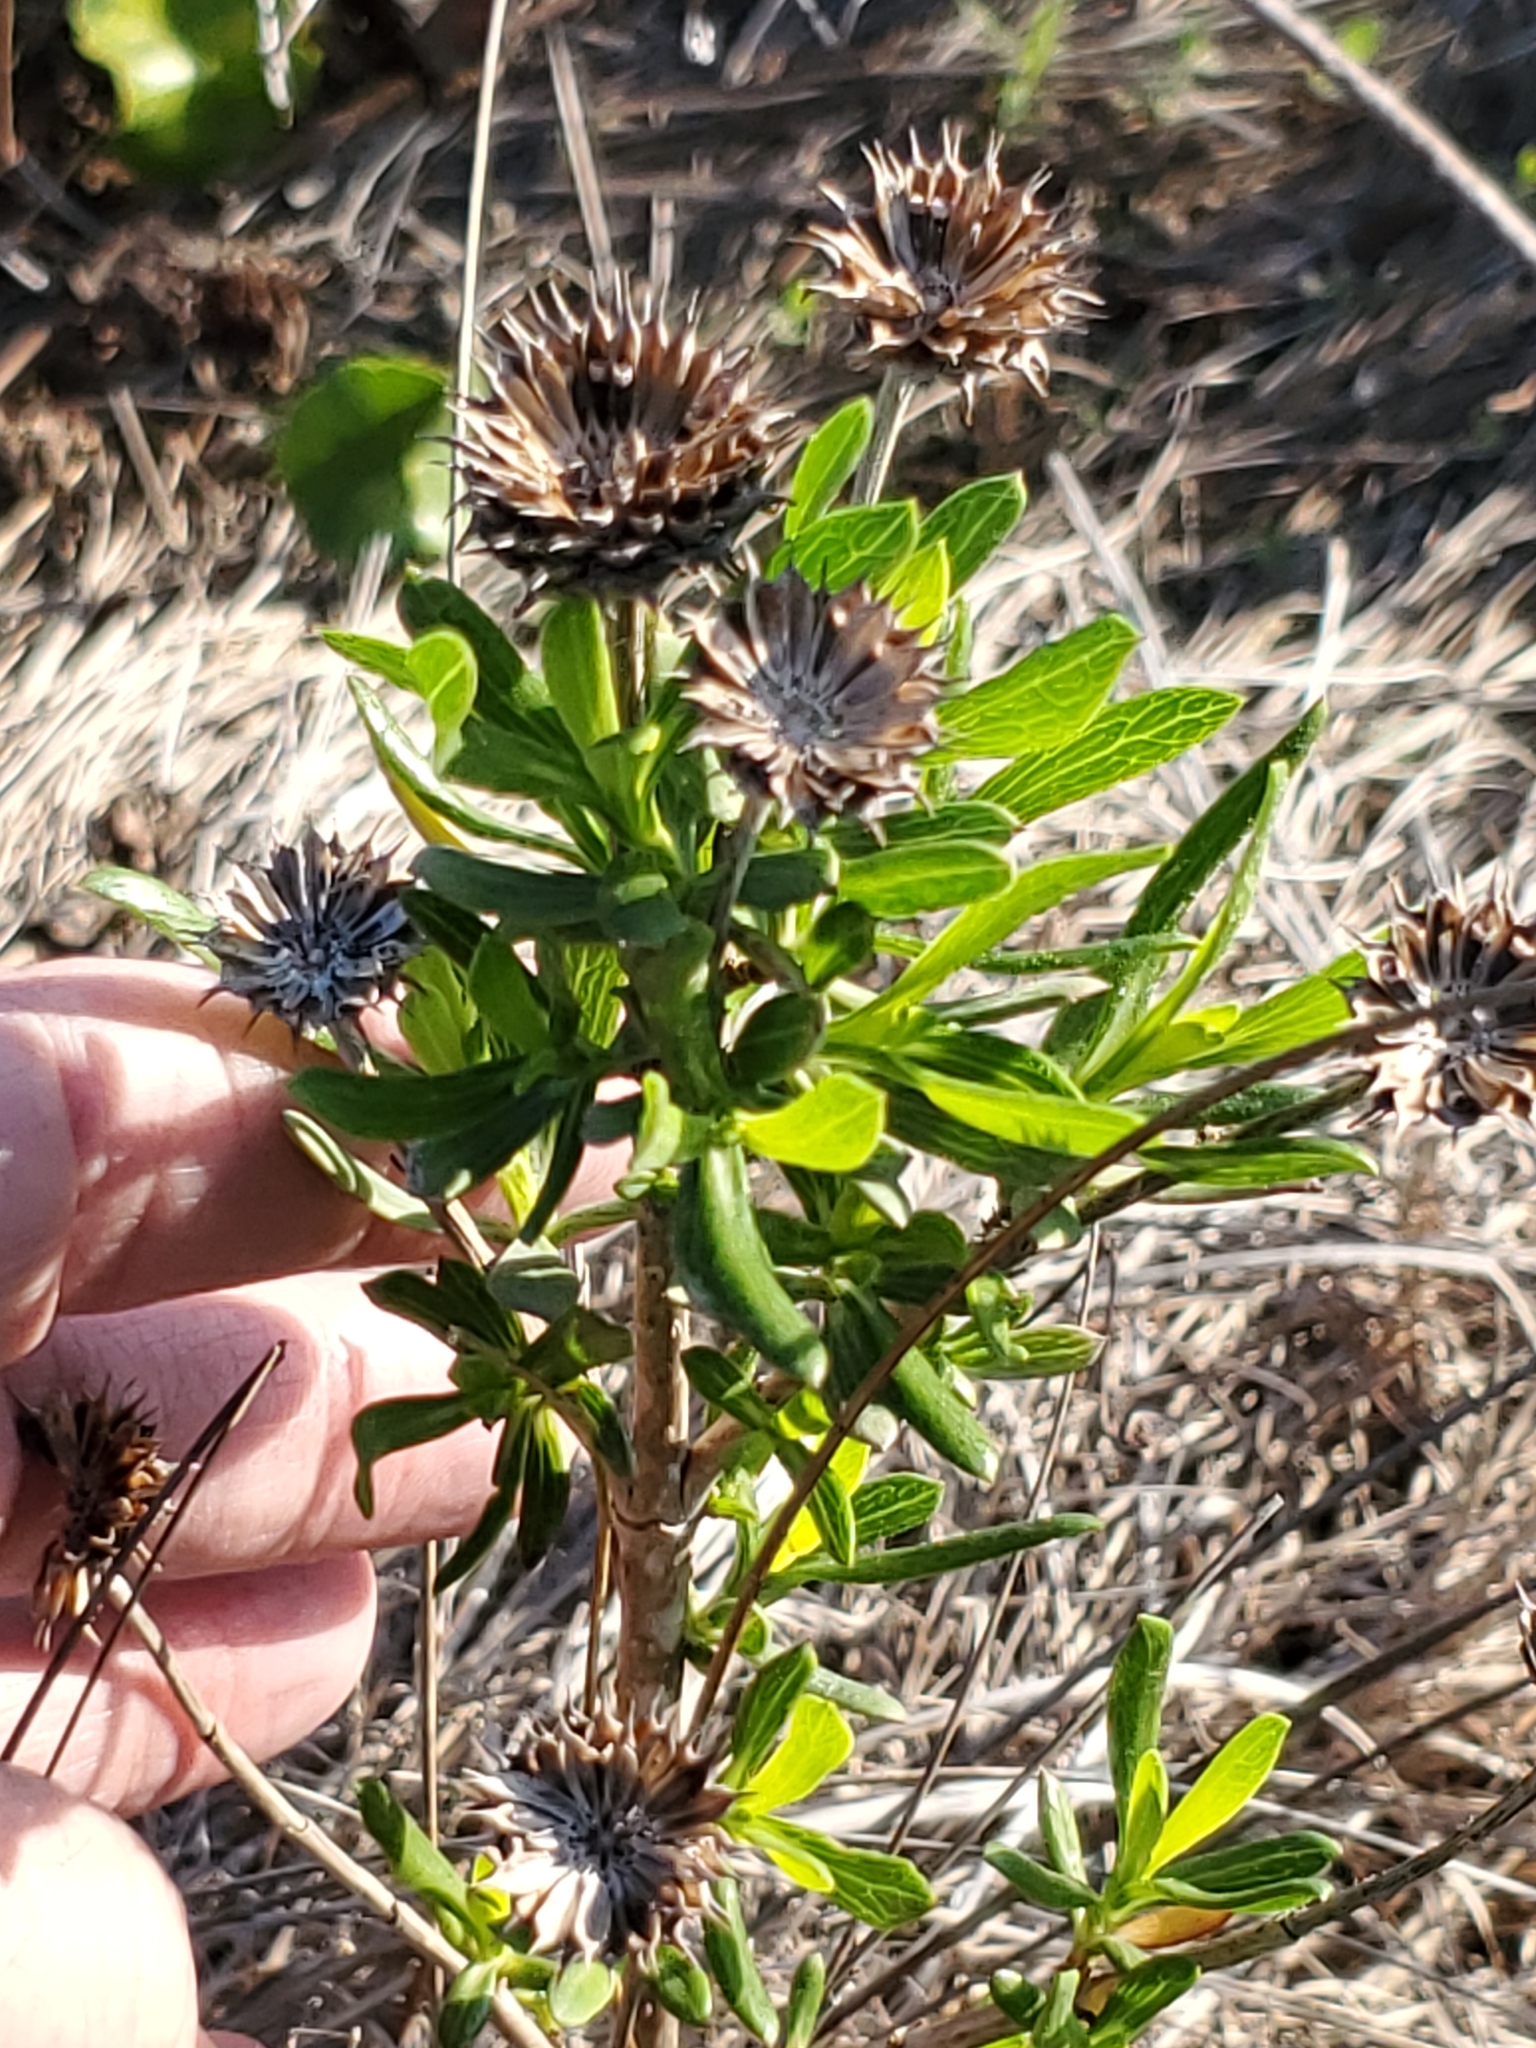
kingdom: Plantae
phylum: Tracheophyta
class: Magnoliopsida
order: Asterales
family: Asteraceae
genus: Borrichia
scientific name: Borrichia frutescens
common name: Sea oxeye
